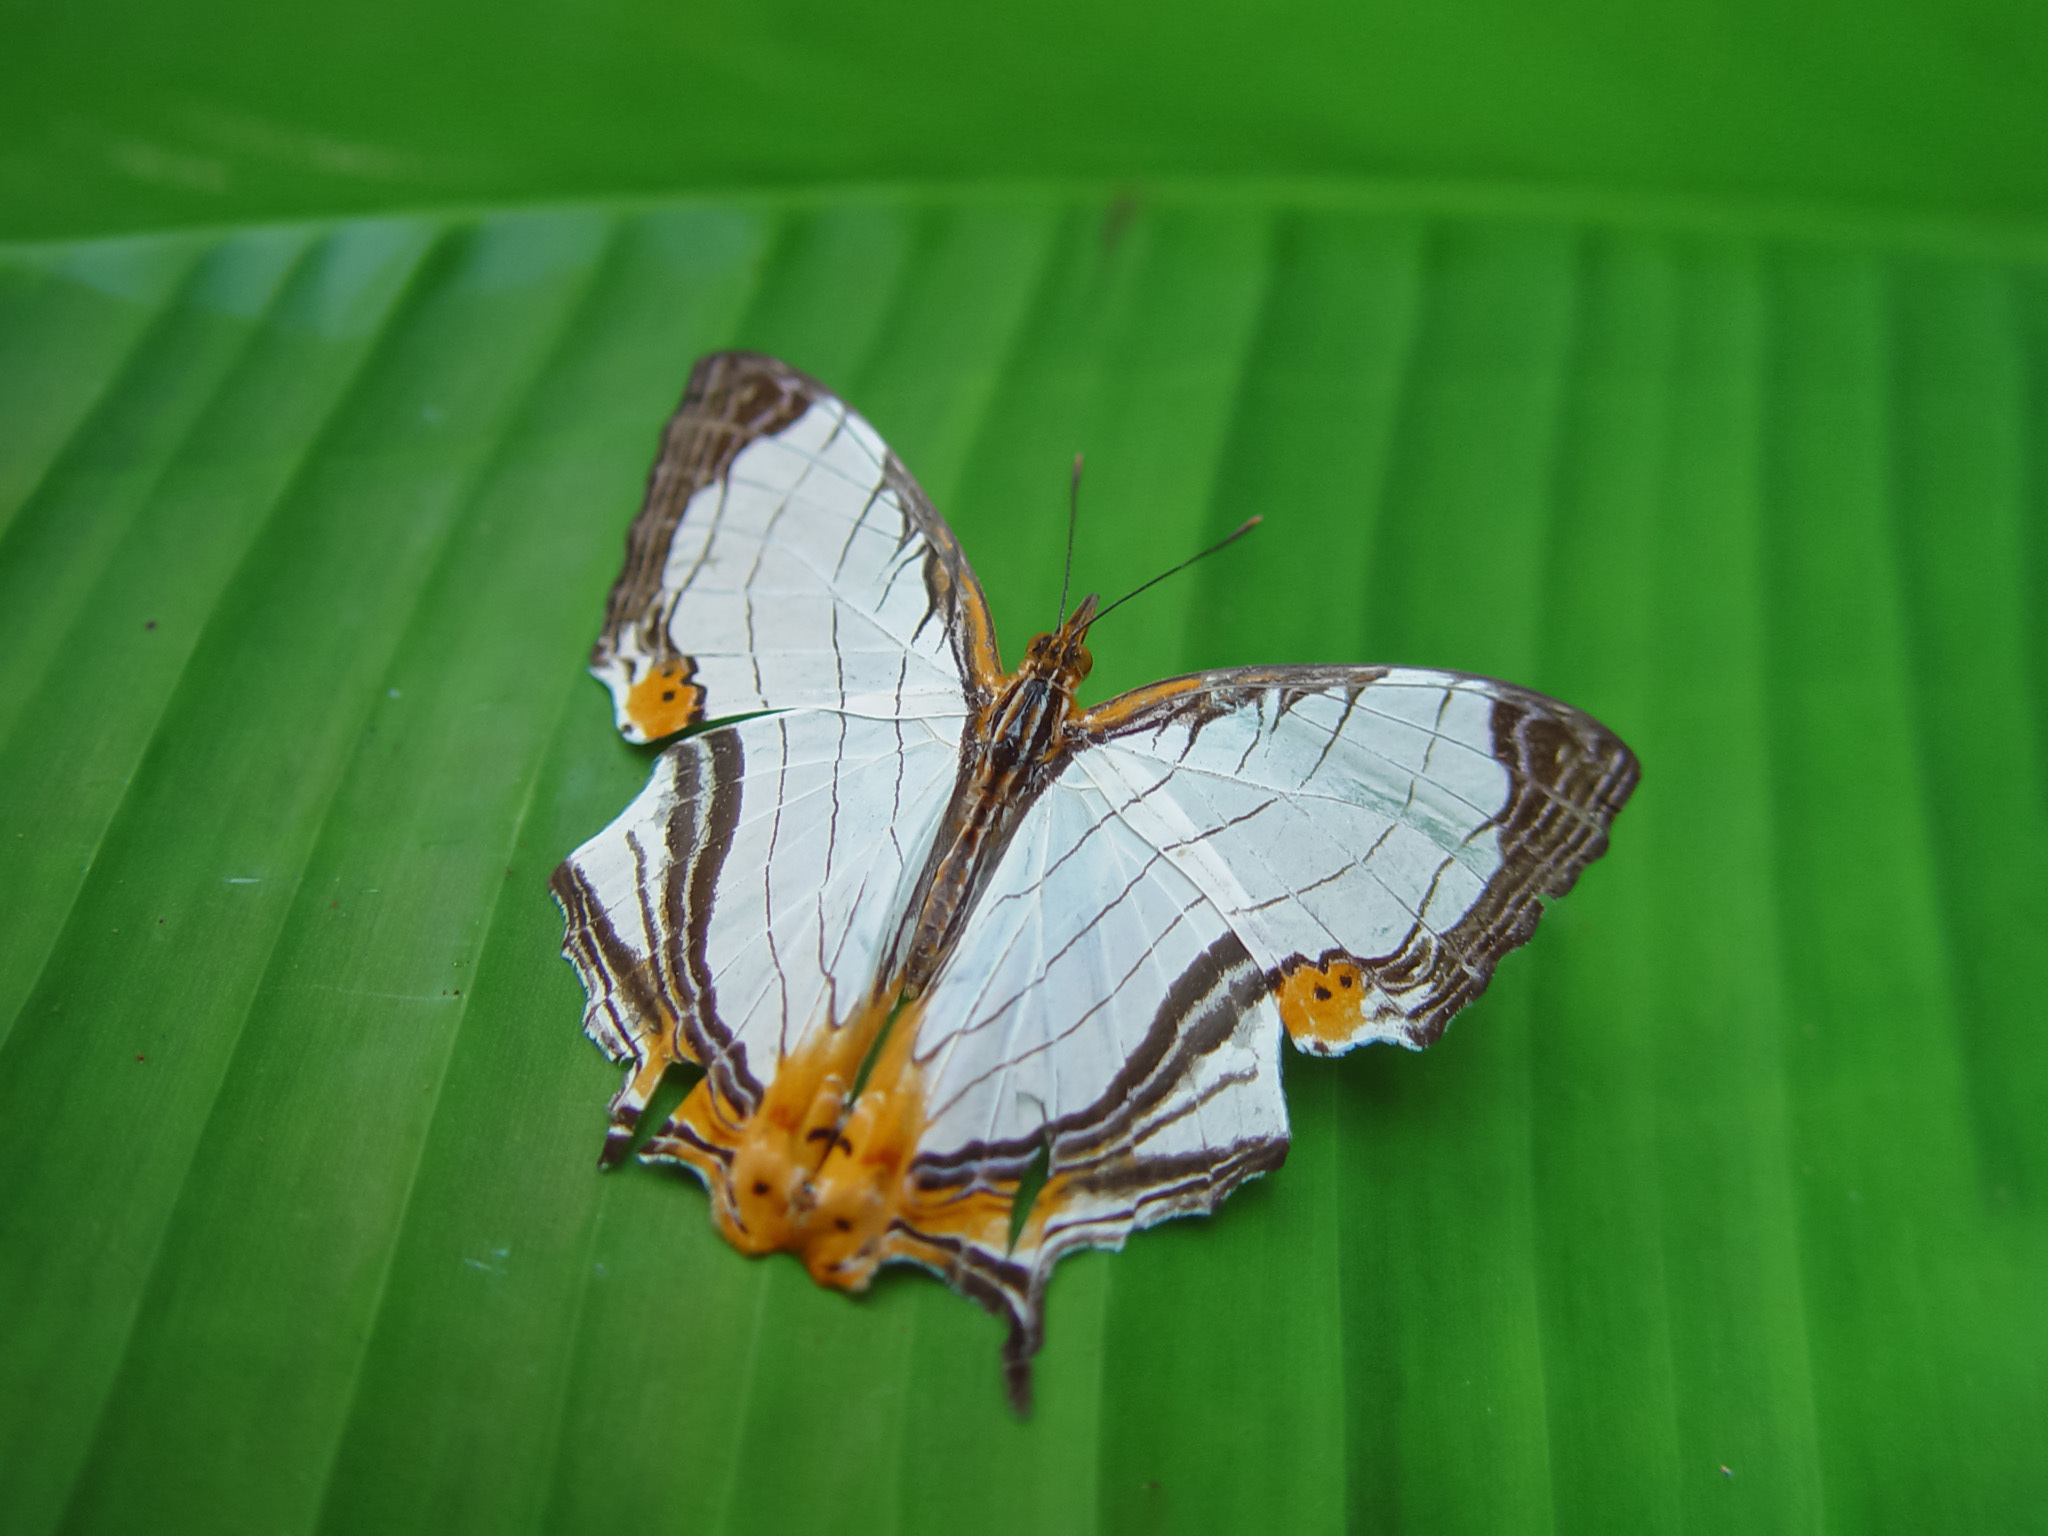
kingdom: Animalia
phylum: Arthropoda
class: Insecta
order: Lepidoptera
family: Nymphalidae
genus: Cyrestis
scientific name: Cyrestis nivea
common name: Straight line mapwing
